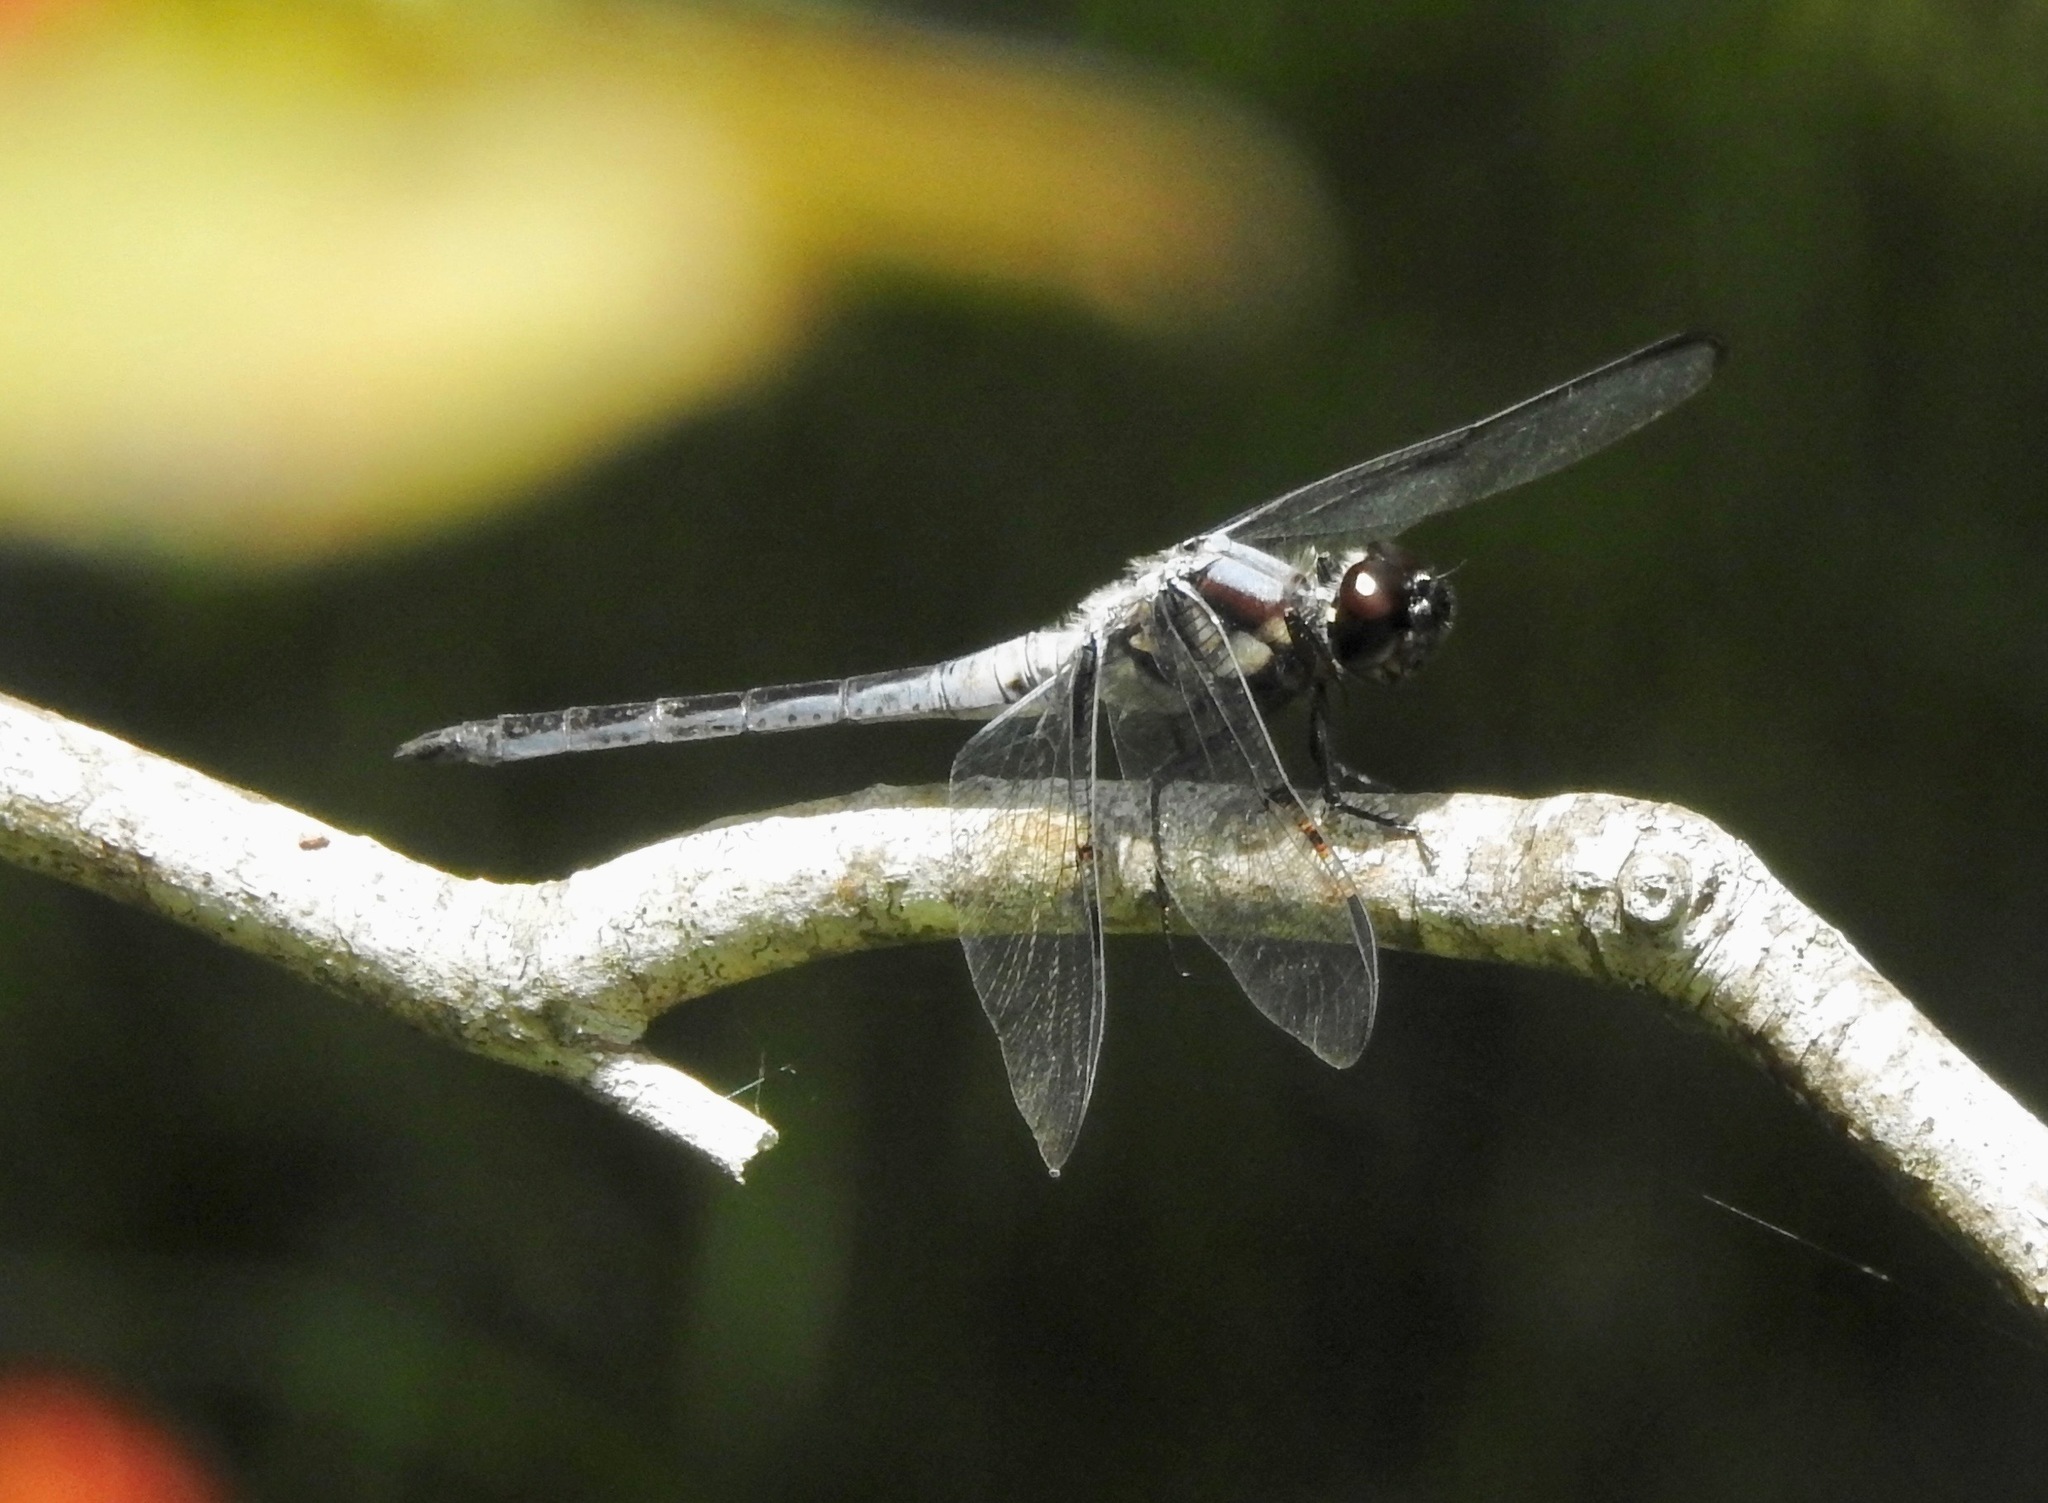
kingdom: Animalia
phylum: Arthropoda
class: Insecta
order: Odonata
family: Libellulidae
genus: Libellula
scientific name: Libellula axilena
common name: Bar-winged skimmer
